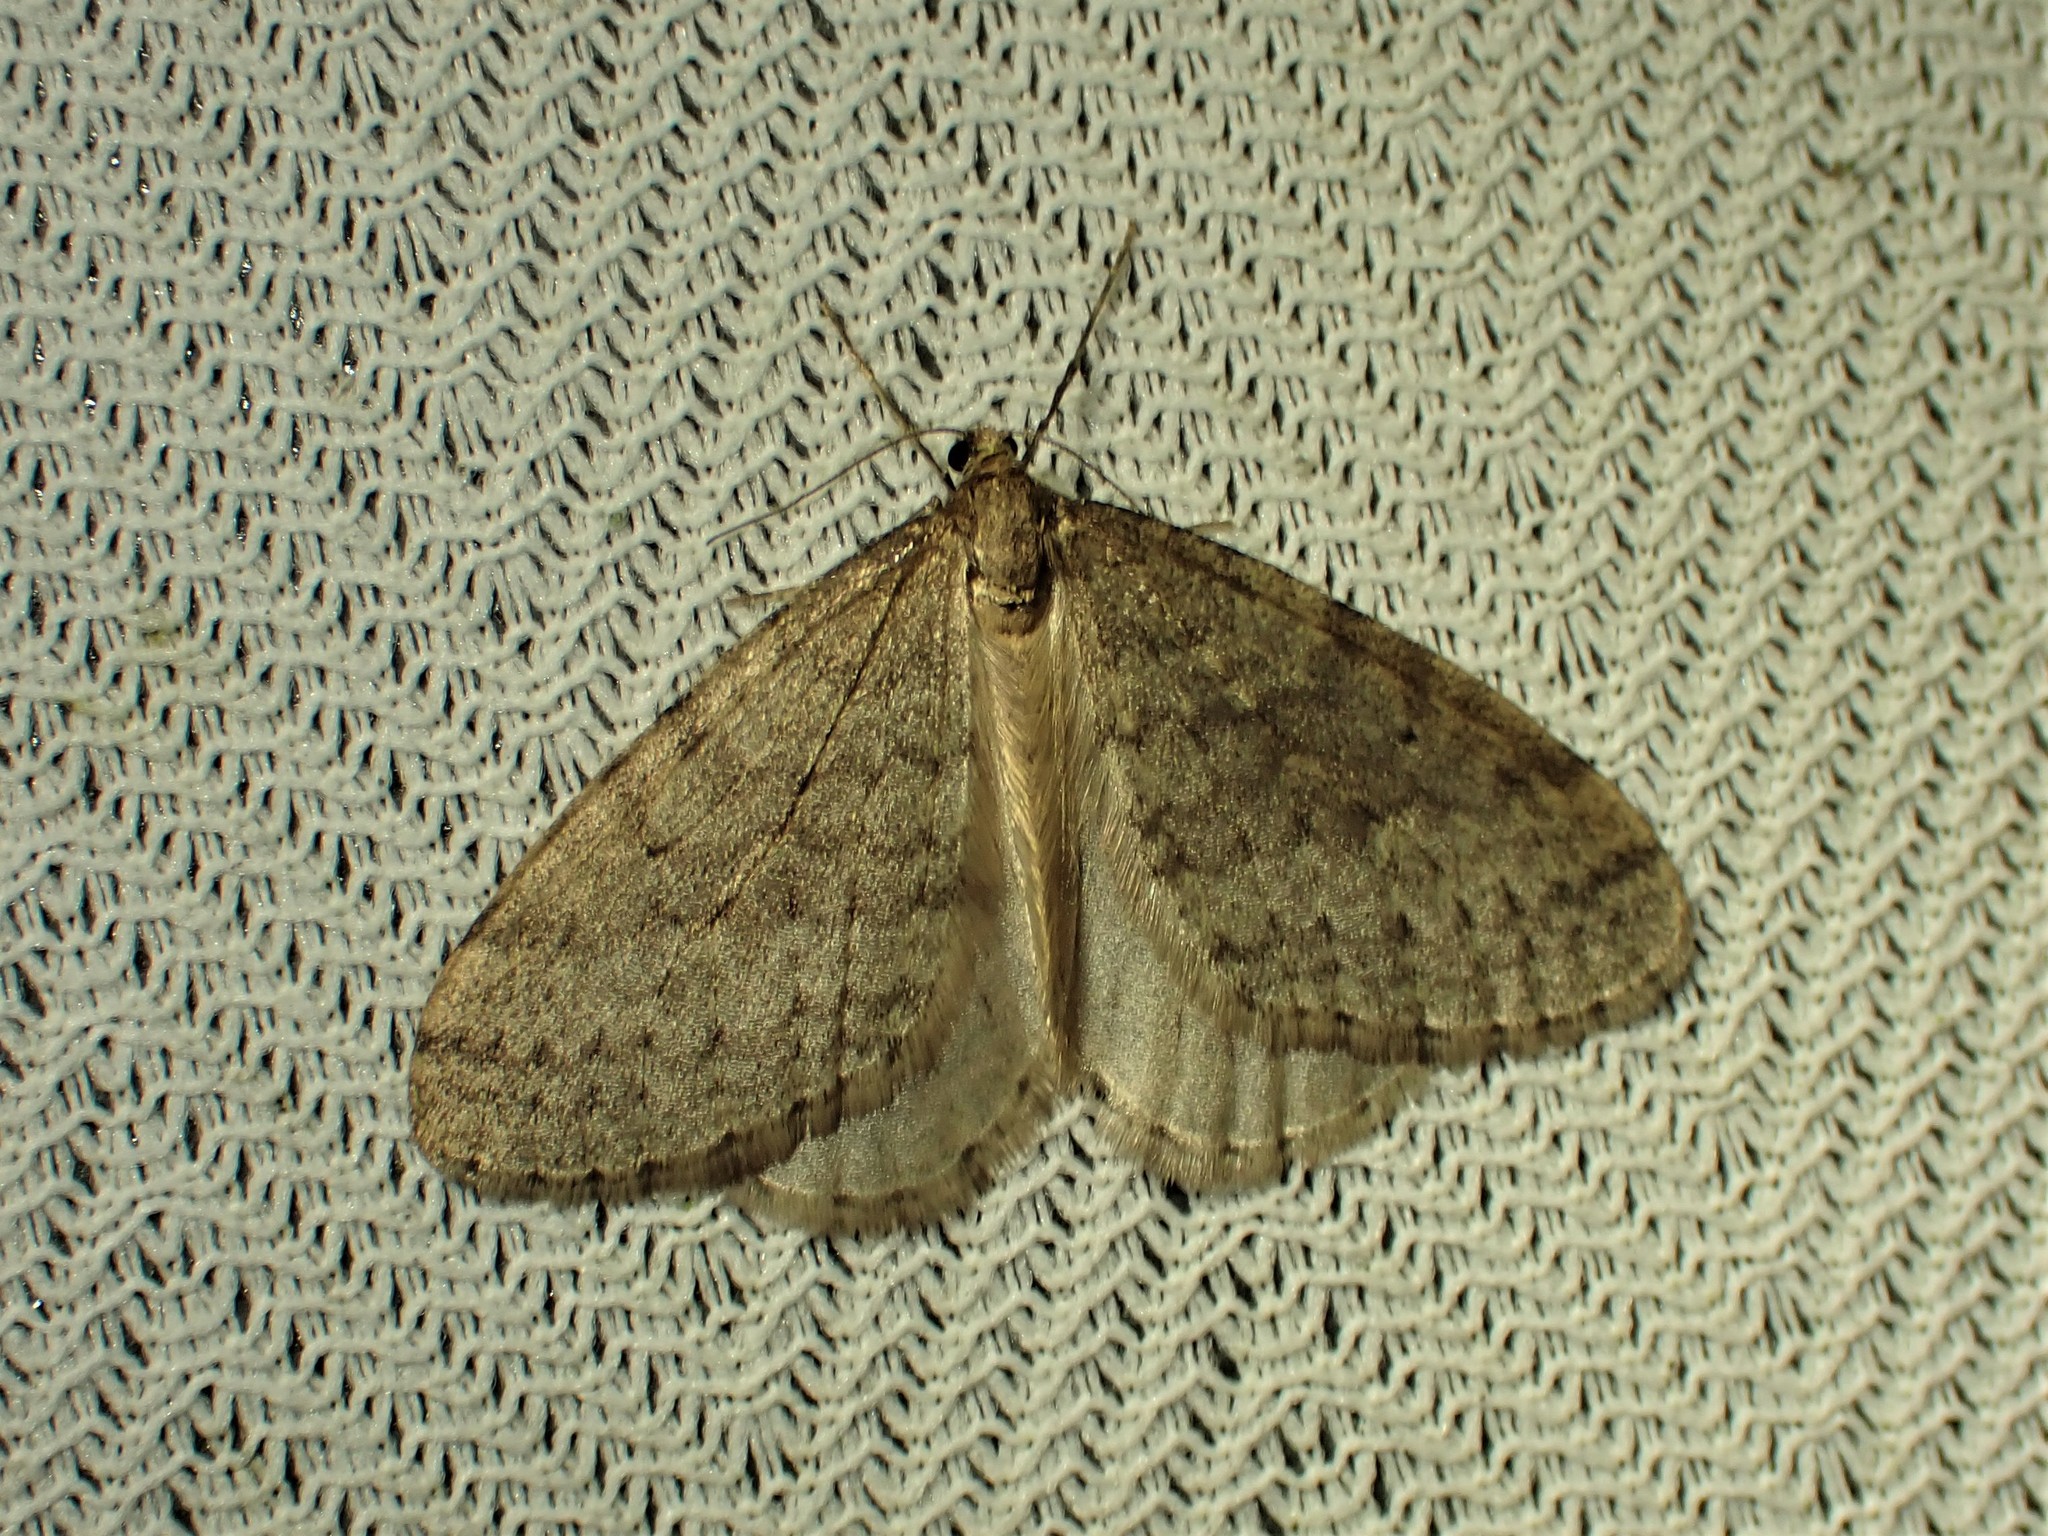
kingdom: Animalia
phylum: Arthropoda
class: Insecta
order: Lepidoptera
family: Geometridae
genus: Operophtera
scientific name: Operophtera bruceata
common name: Bruce spanworm
